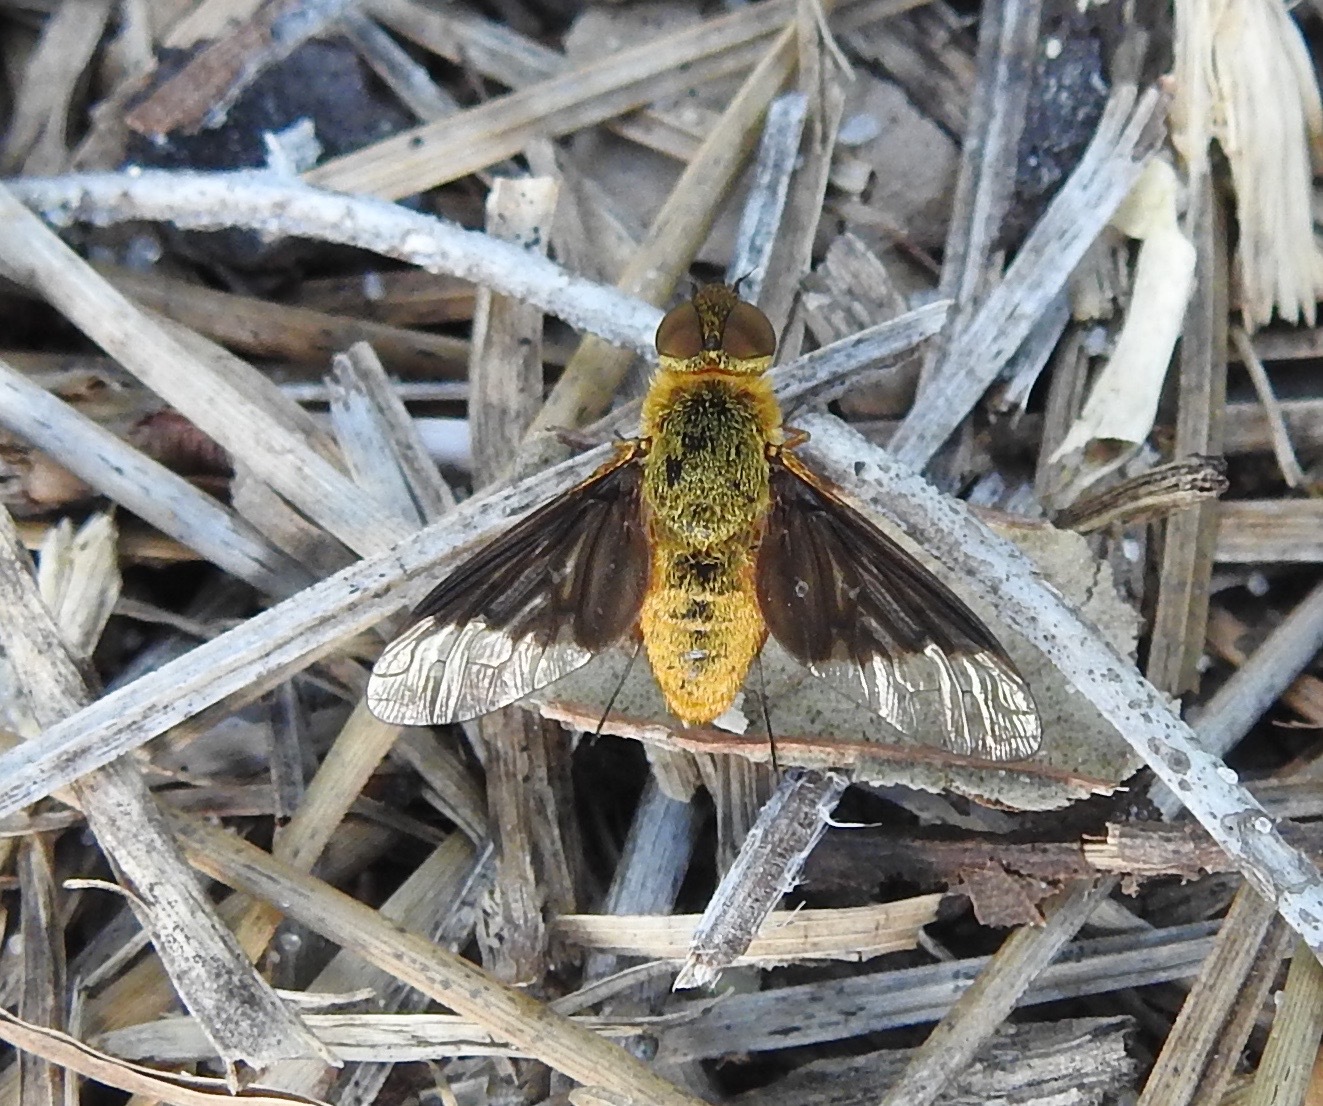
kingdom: Animalia
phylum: Arthropoda
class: Insecta
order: Diptera
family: Bombyliidae
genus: Chrysanthrax
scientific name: Chrysanthrax cypris
